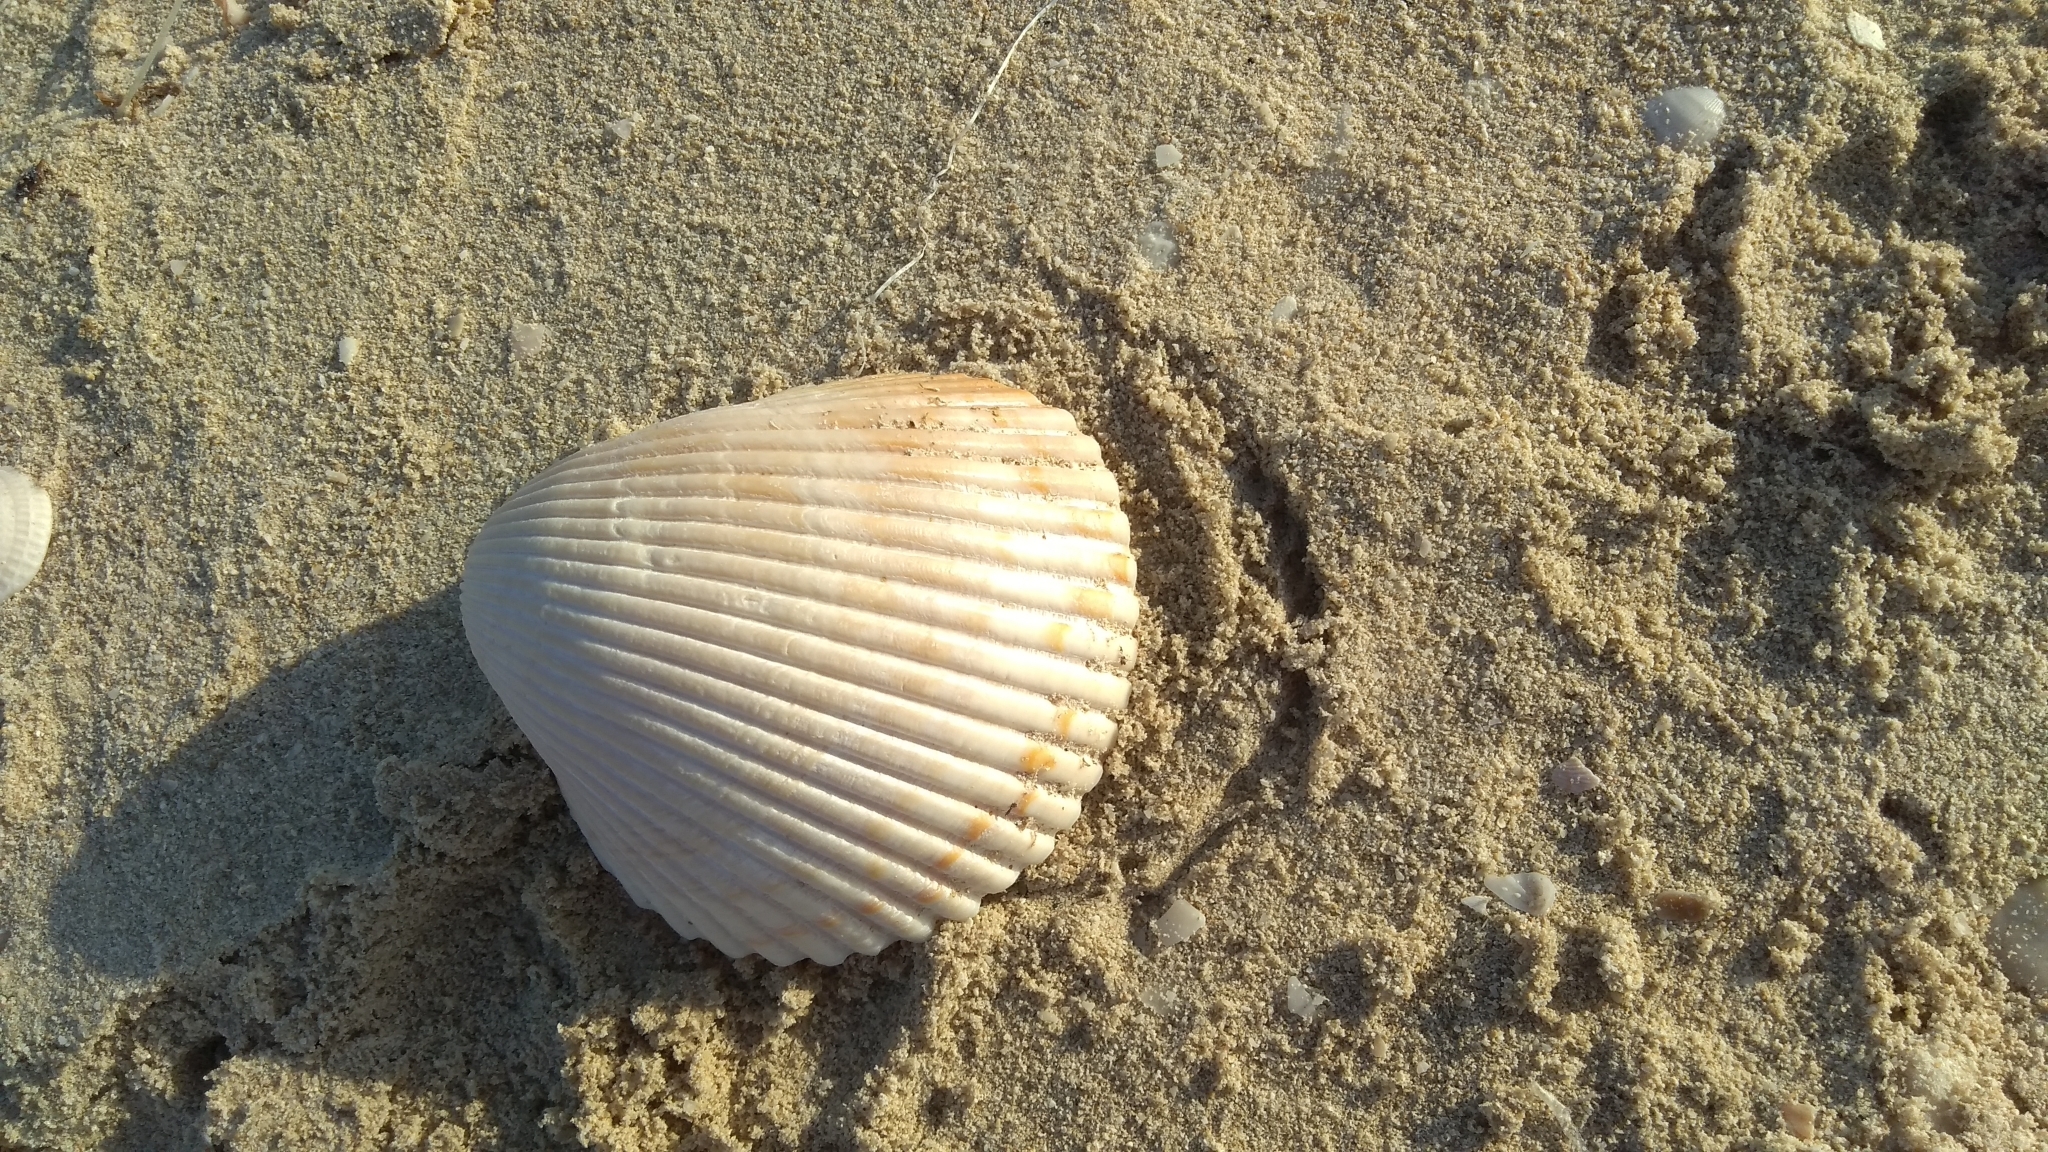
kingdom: Animalia
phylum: Mollusca
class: Bivalvia
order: Cardiida
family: Cardiidae
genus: Dinocardium
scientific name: Dinocardium robustum
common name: Atlantic giant cockle
